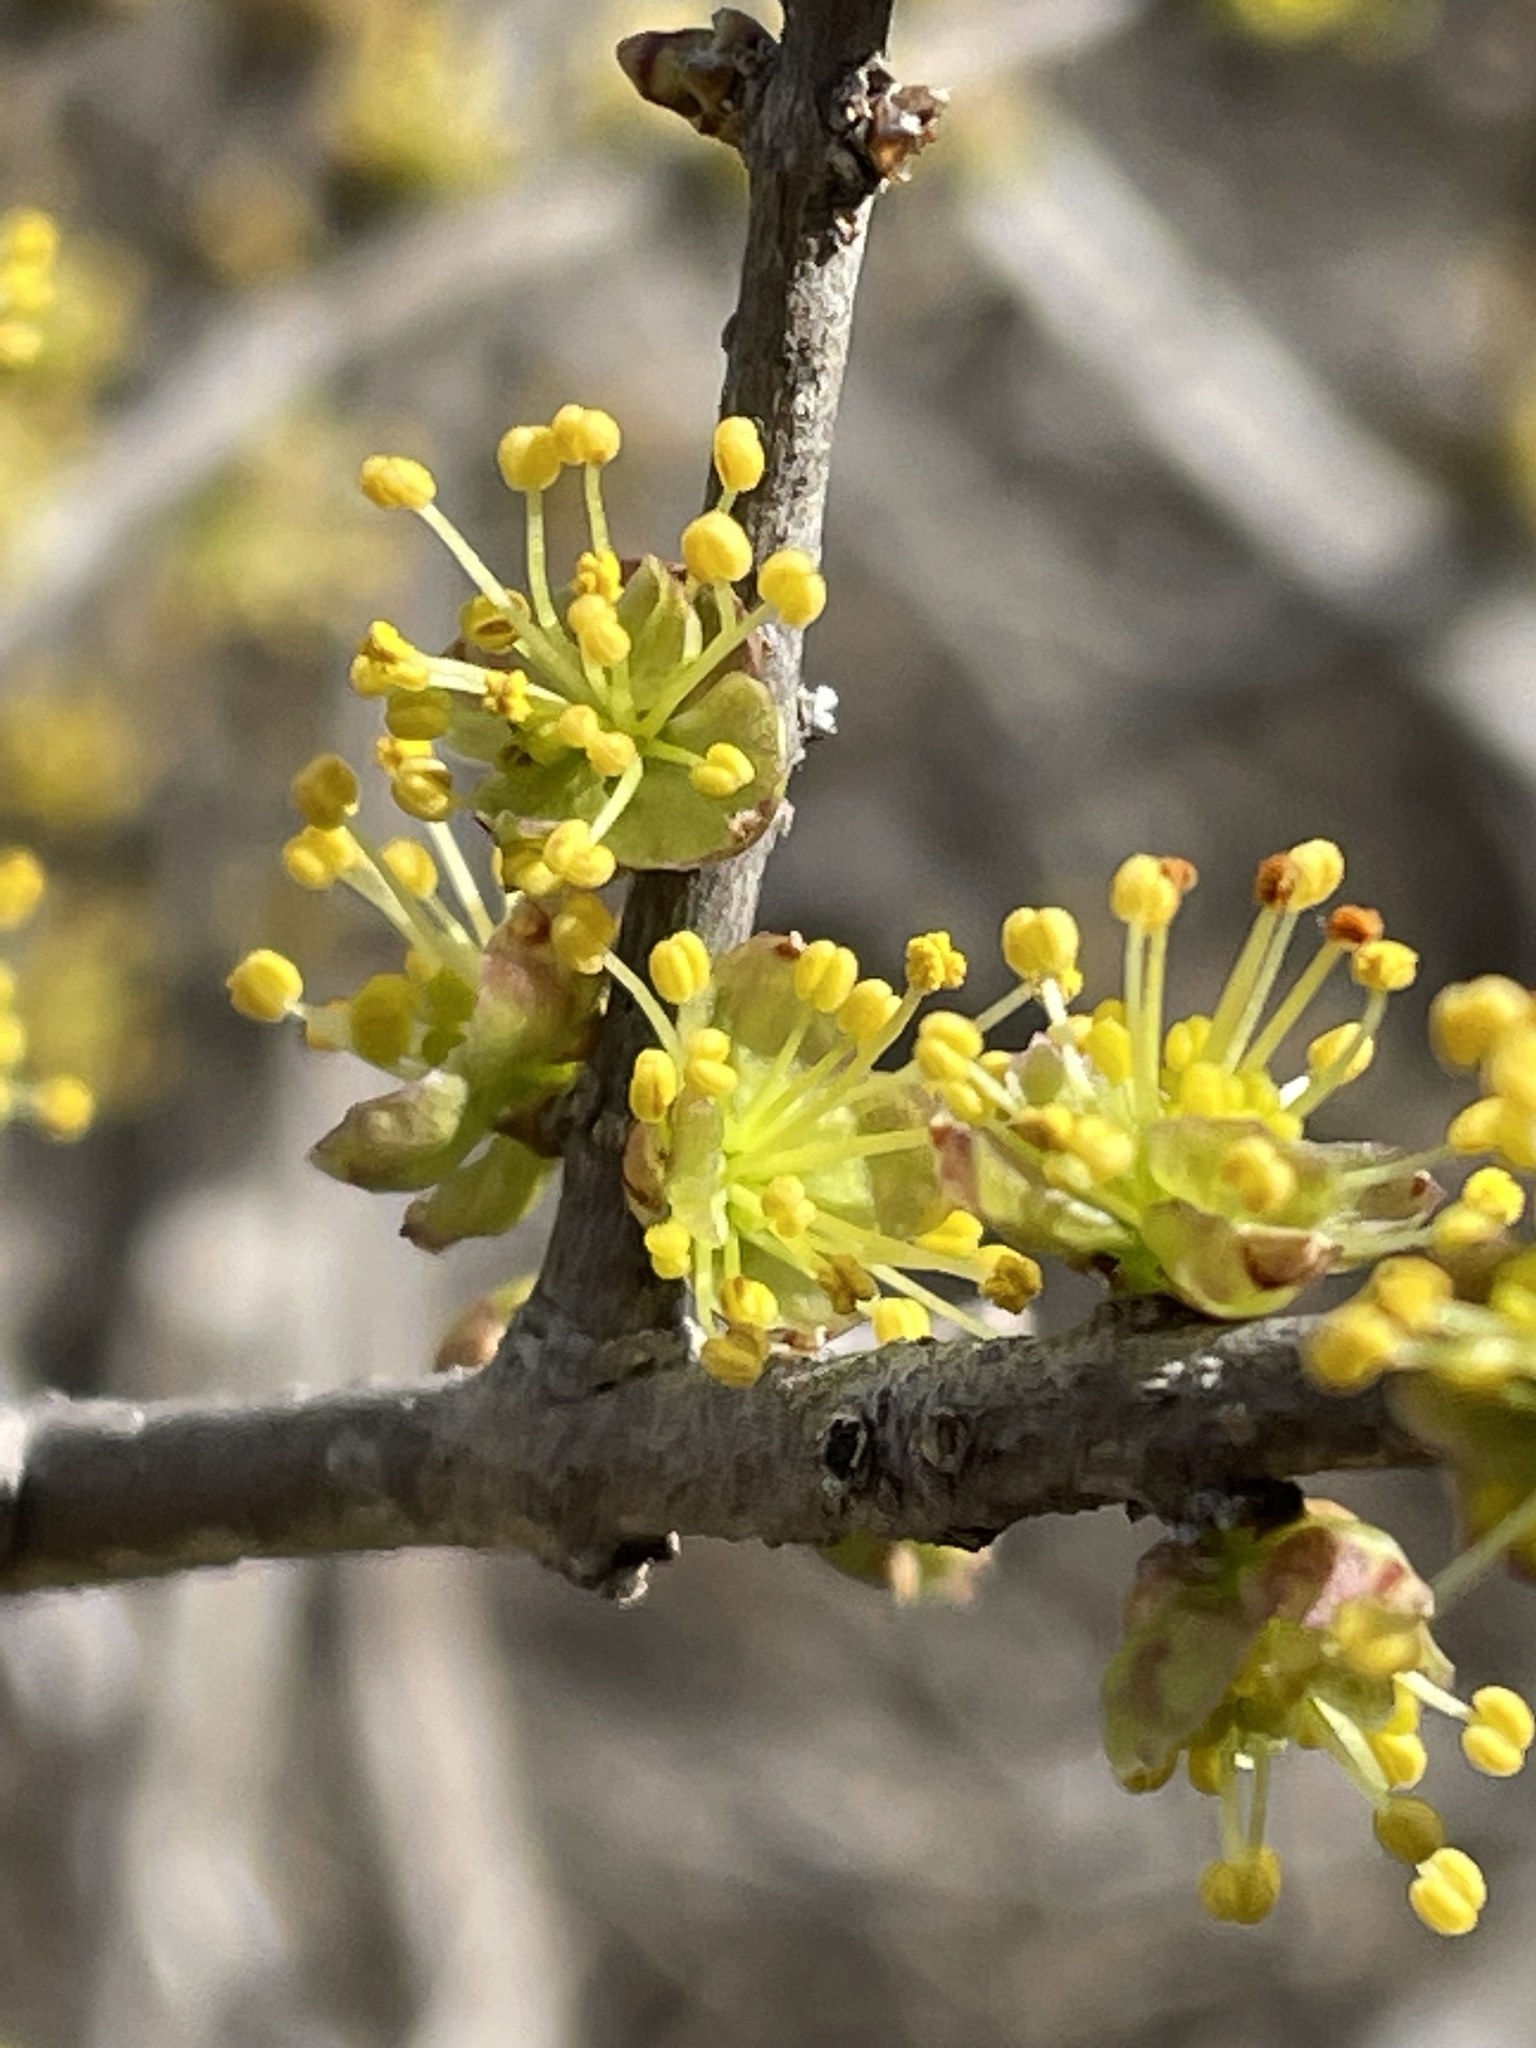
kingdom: Plantae
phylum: Tracheophyta
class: Magnoliopsida
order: Lamiales
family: Oleaceae
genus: Forestiera
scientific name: Forestiera pubescens
